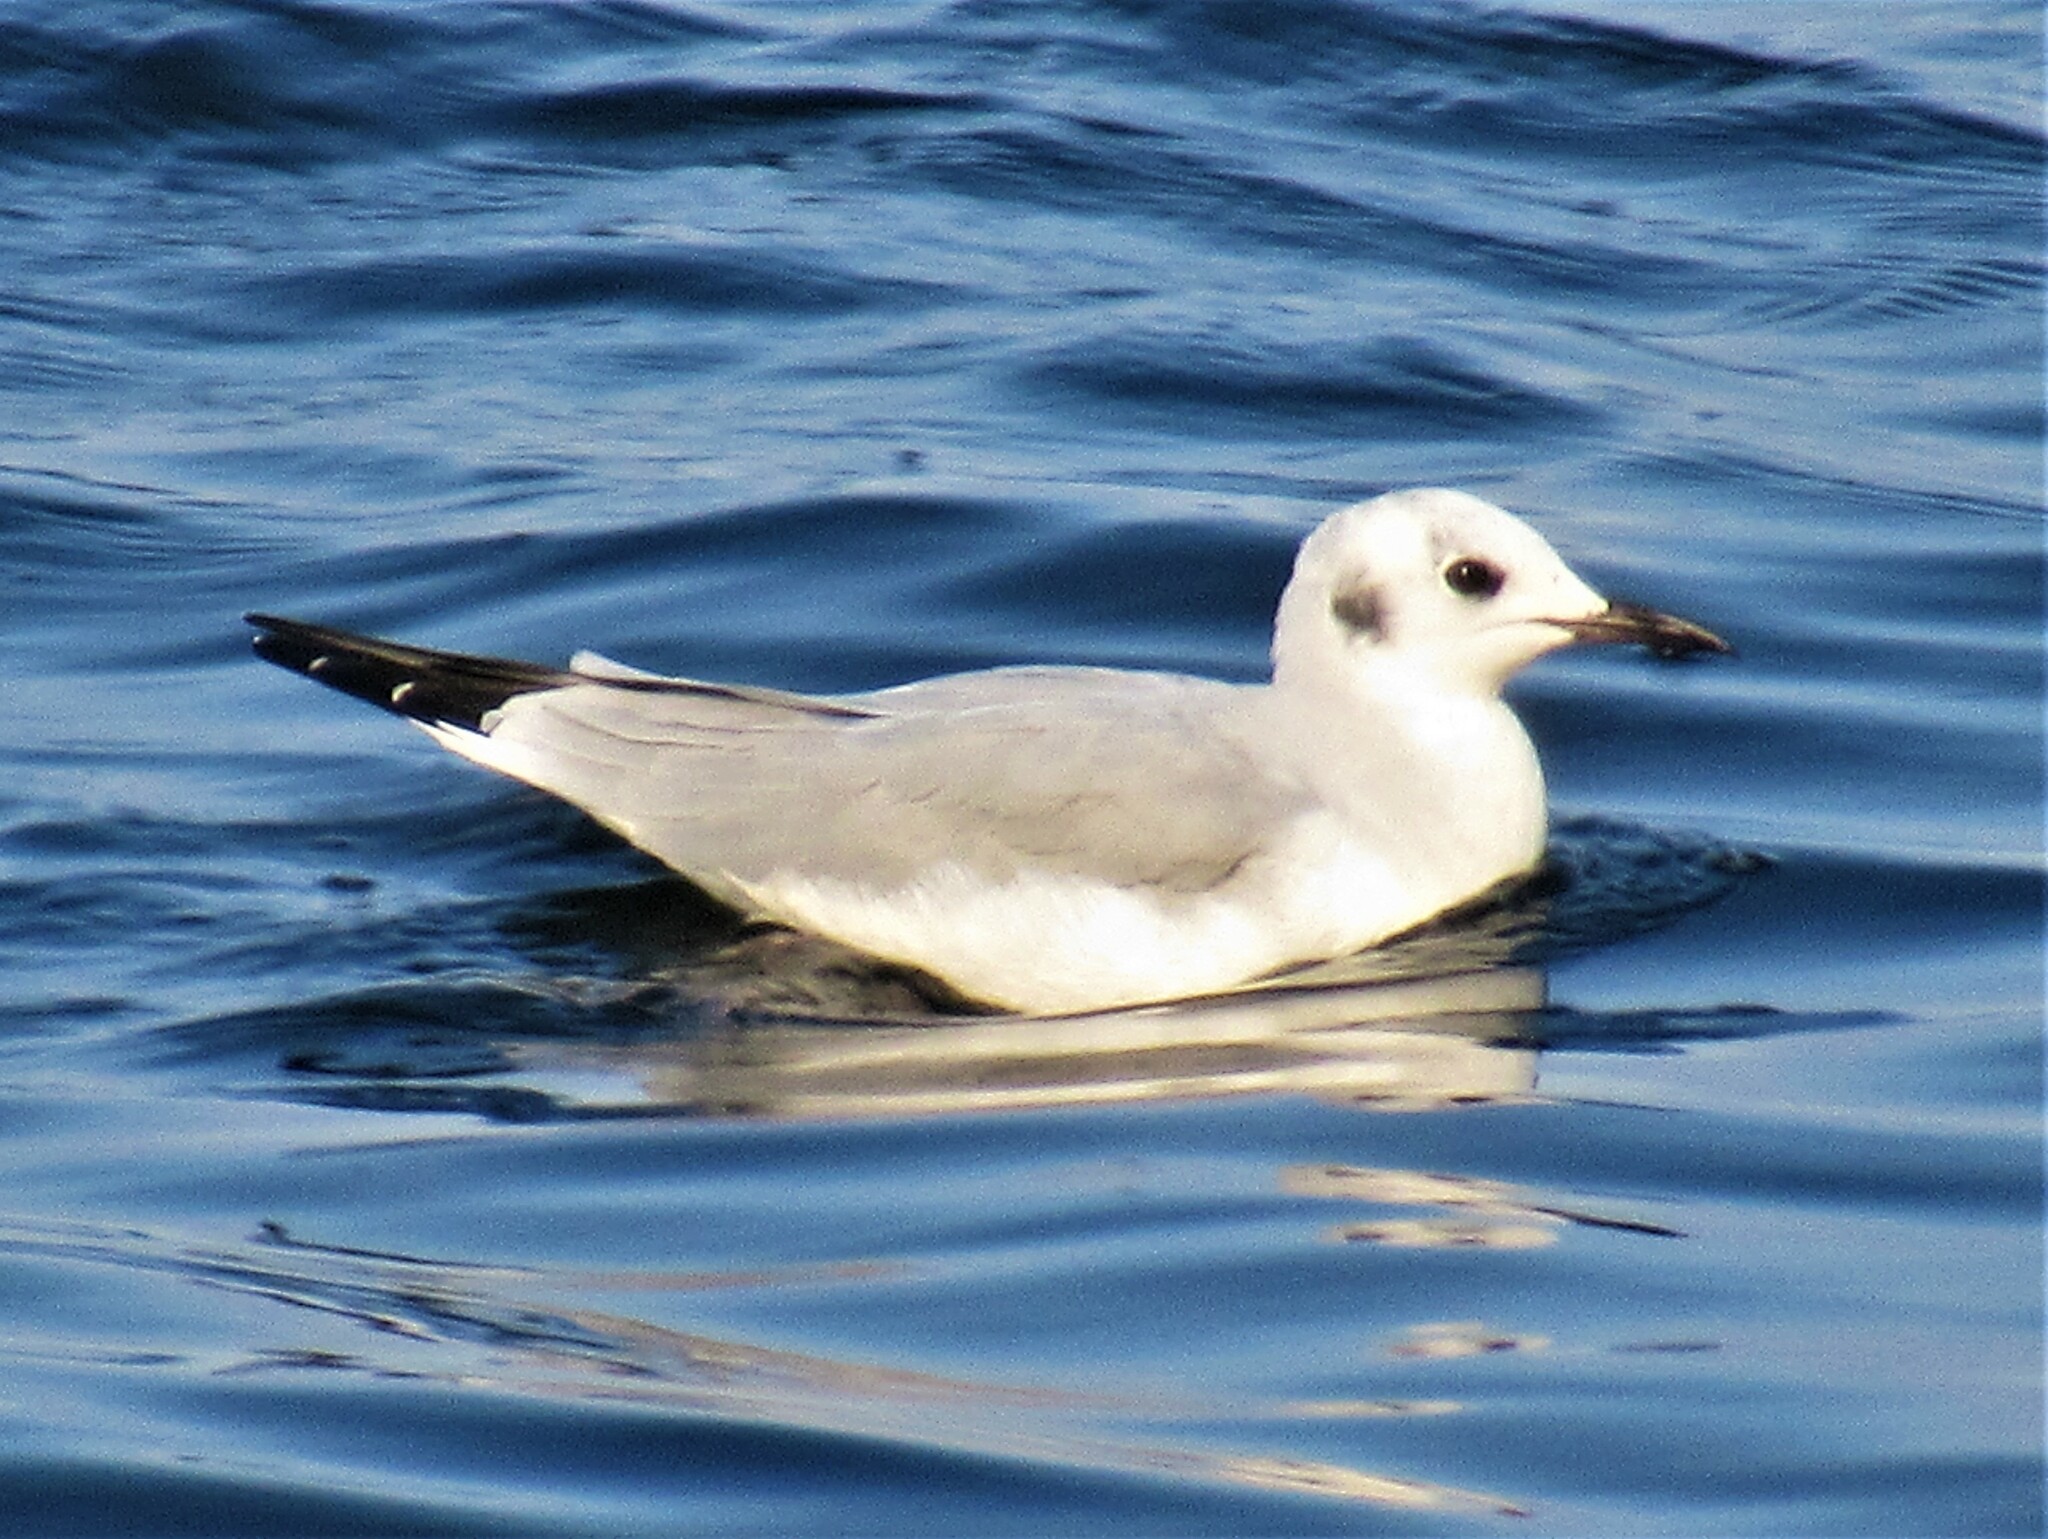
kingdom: Animalia
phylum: Chordata
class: Aves
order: Charadriiformes
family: Laridae
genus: Chroicocephalus
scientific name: Chroicocephalus philadelphia
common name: Bonaparte's gull
